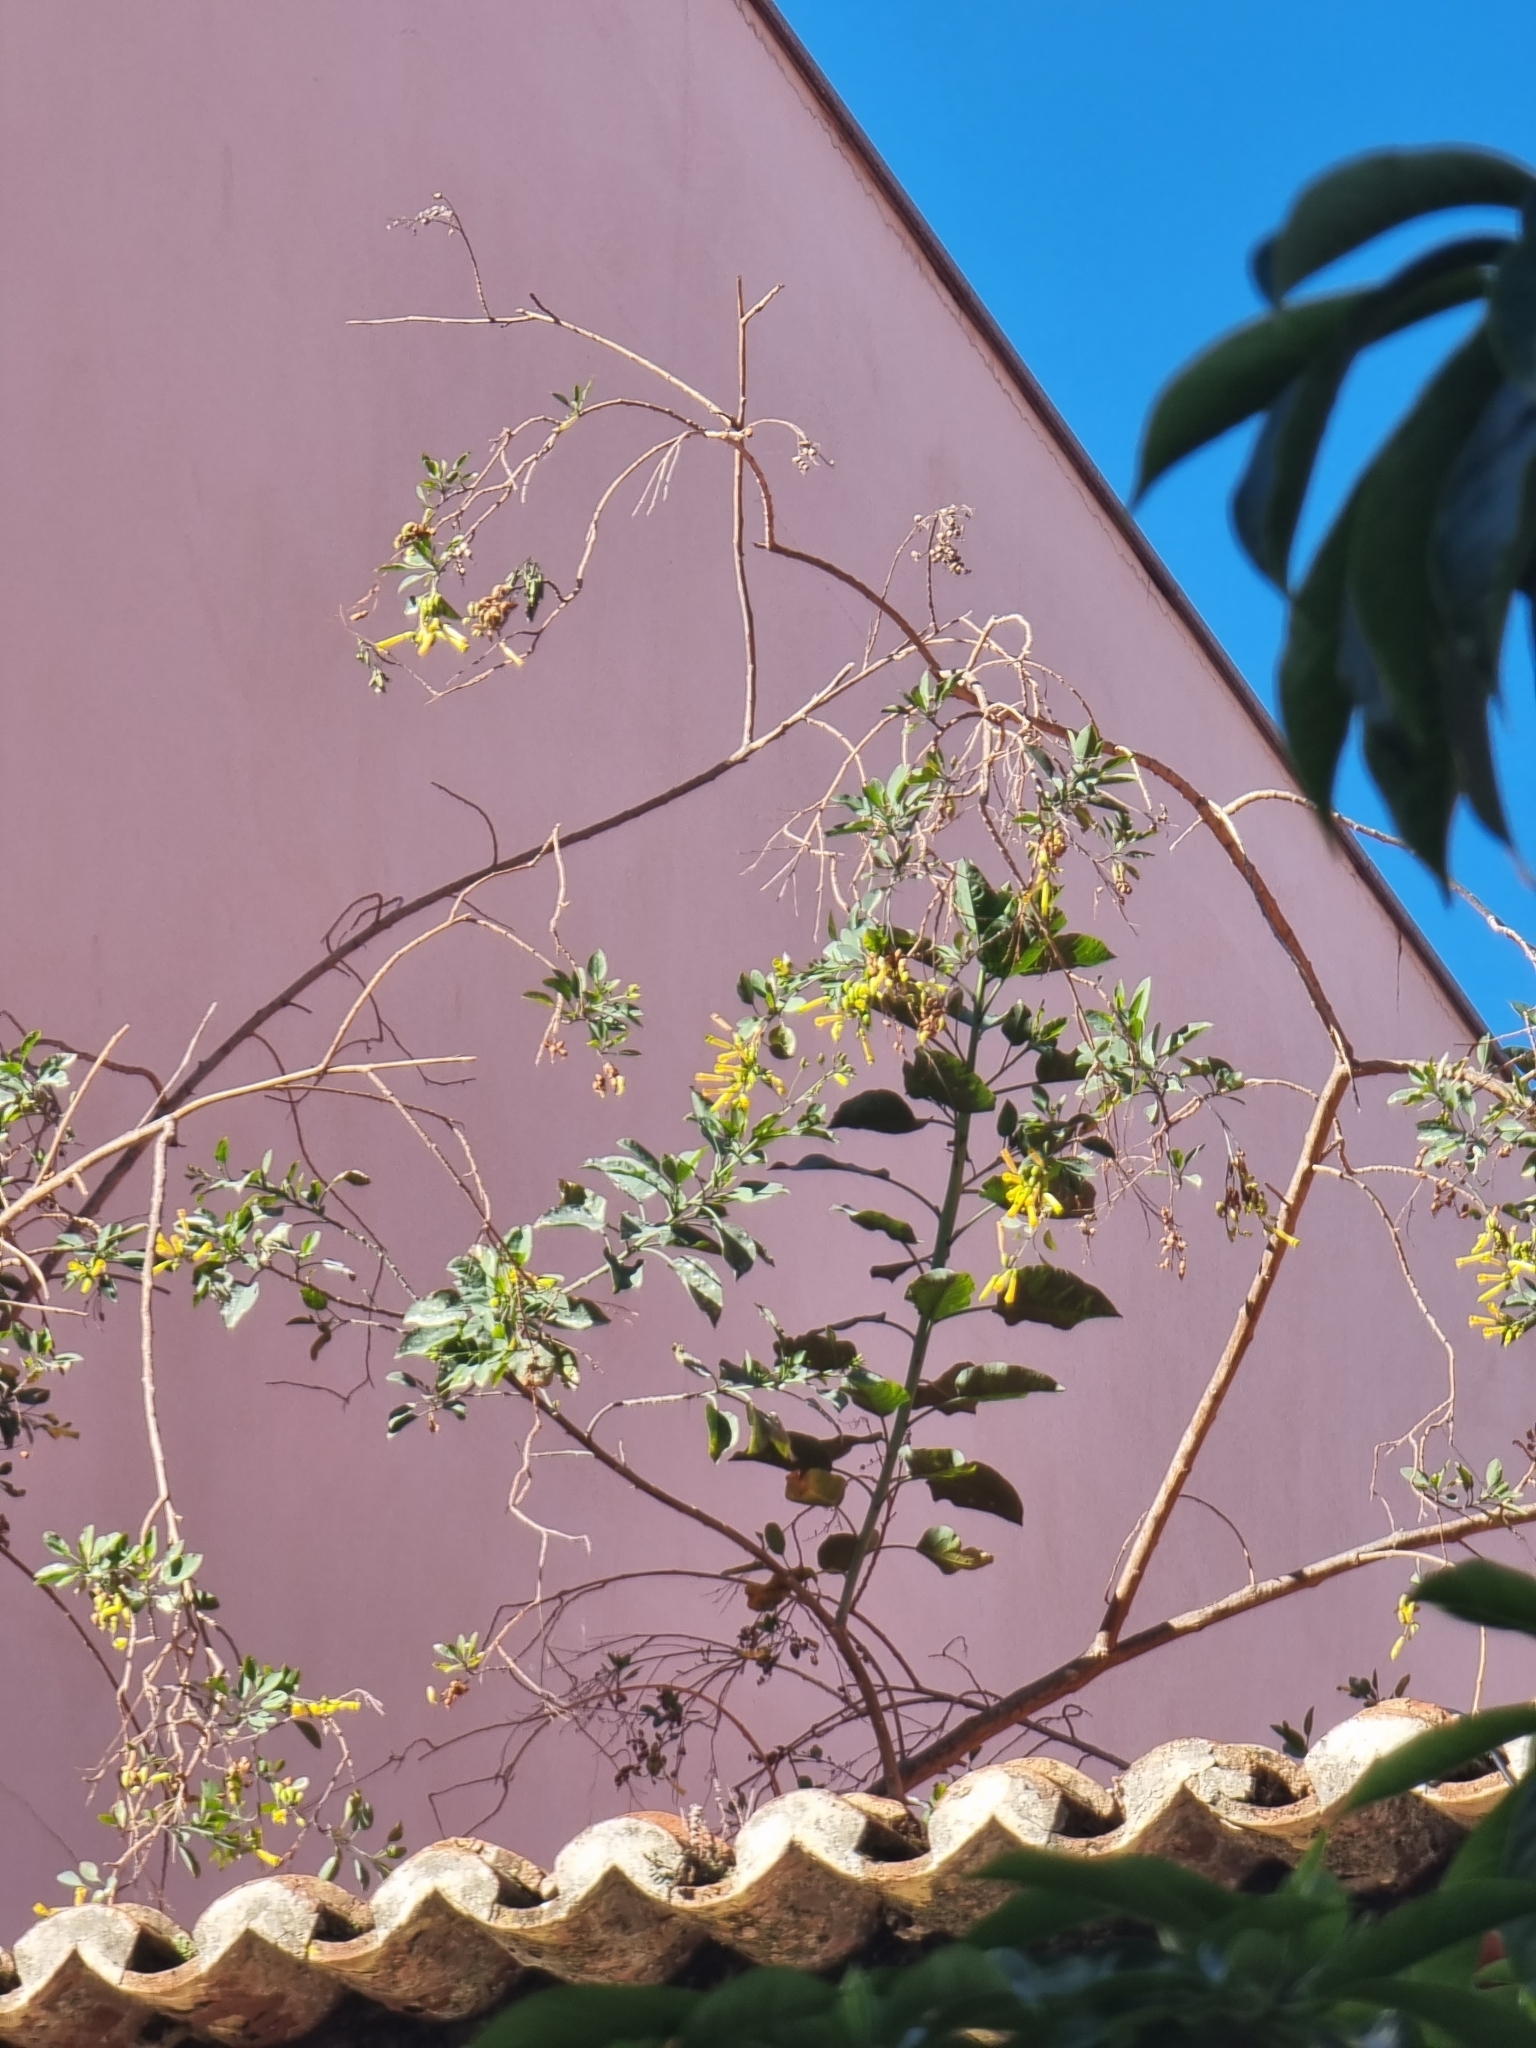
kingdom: Plantae
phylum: Tracheophyta
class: Magnoliopsida
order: Solanales
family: Solanaceae
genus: Nicotiana
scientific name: Nicotiana glauca
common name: Tree tobacco
